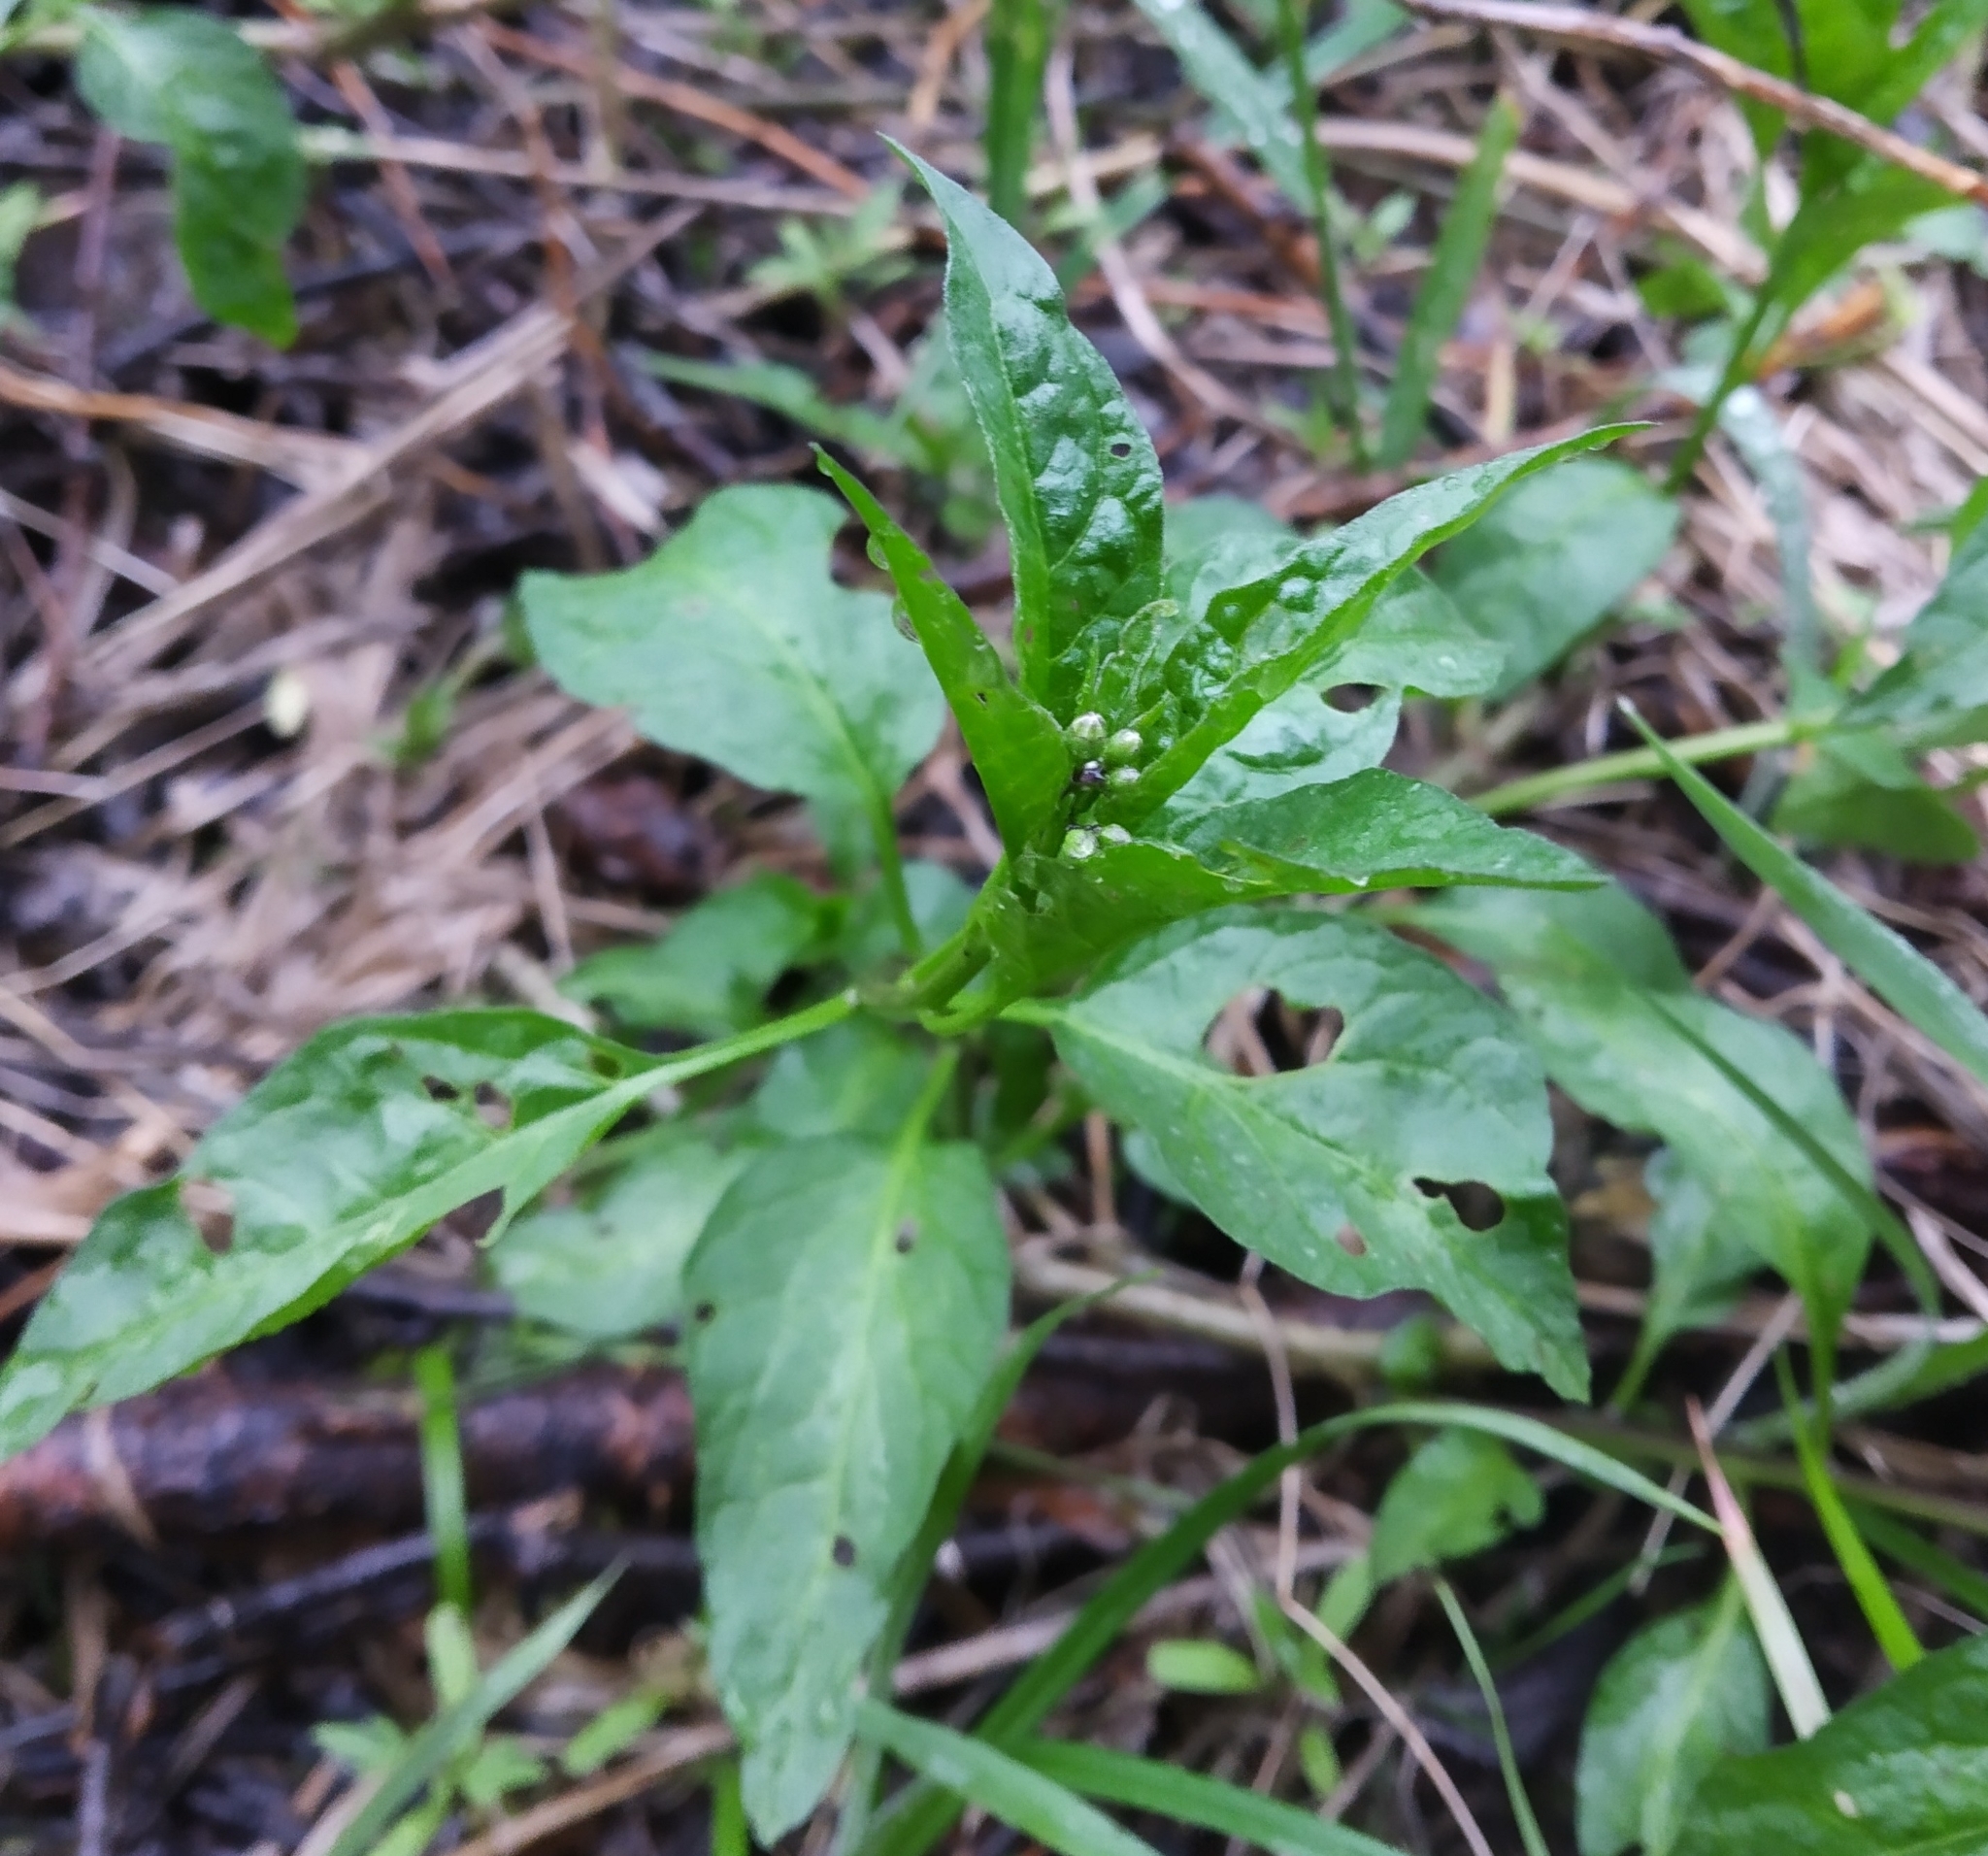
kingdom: Plantae
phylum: Tracheophyta
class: Magnoliopsida
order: Solanales
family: Solanaceae
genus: Solanum
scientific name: Solanum dulcamara
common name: Climbing nightshade
